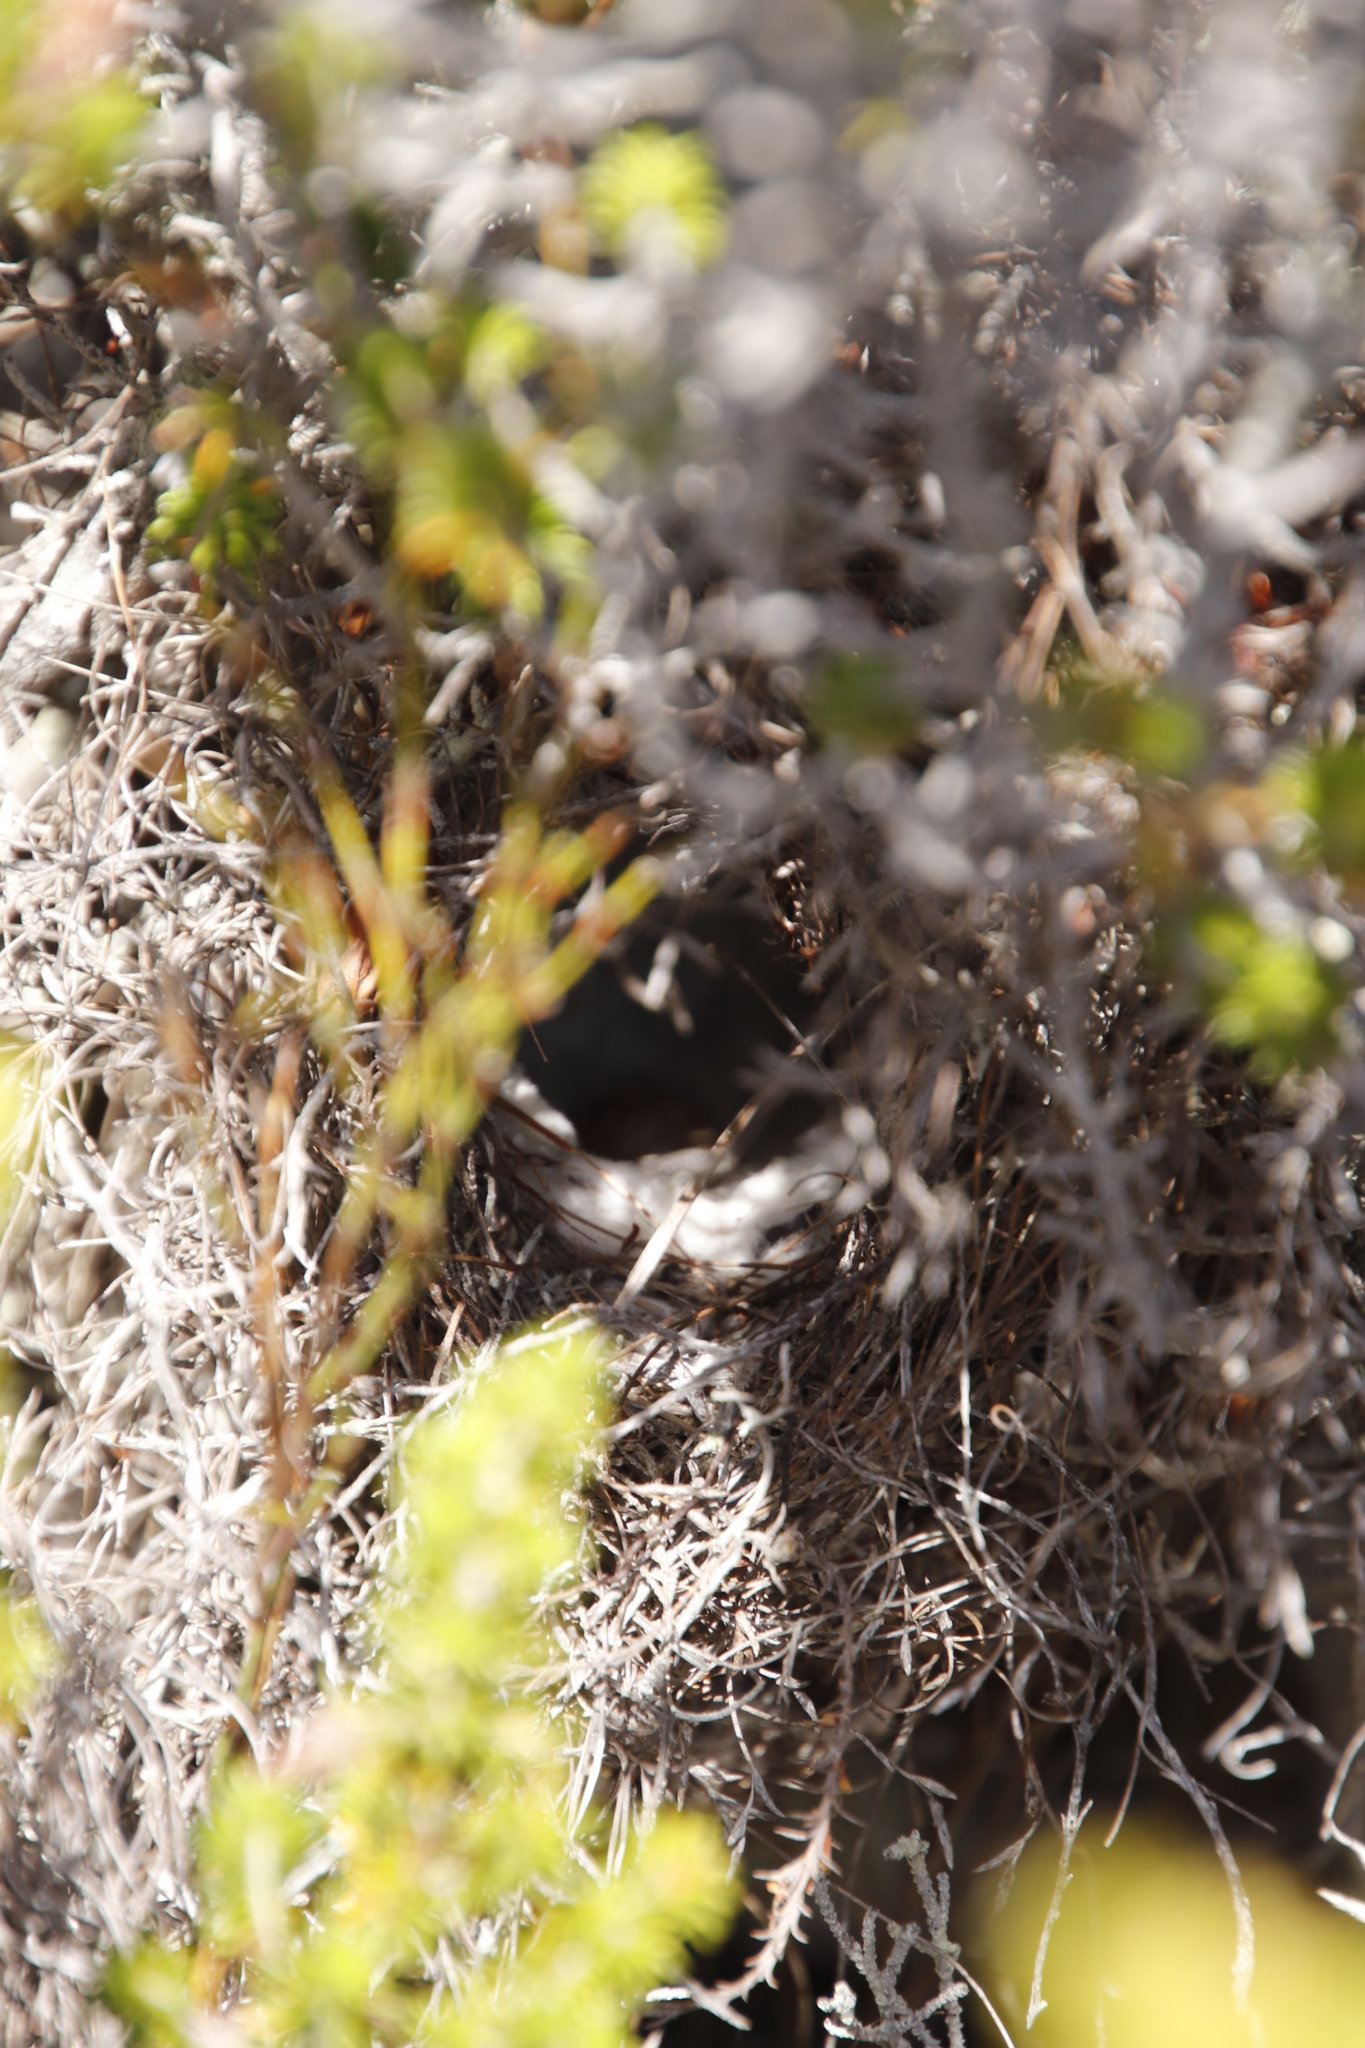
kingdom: Animalia
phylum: Chordata
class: Aves
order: Passeriformes
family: Nectariniidae
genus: Anthobaphes
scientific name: Anthobaphes violacea
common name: Orange-breasted sunbird
